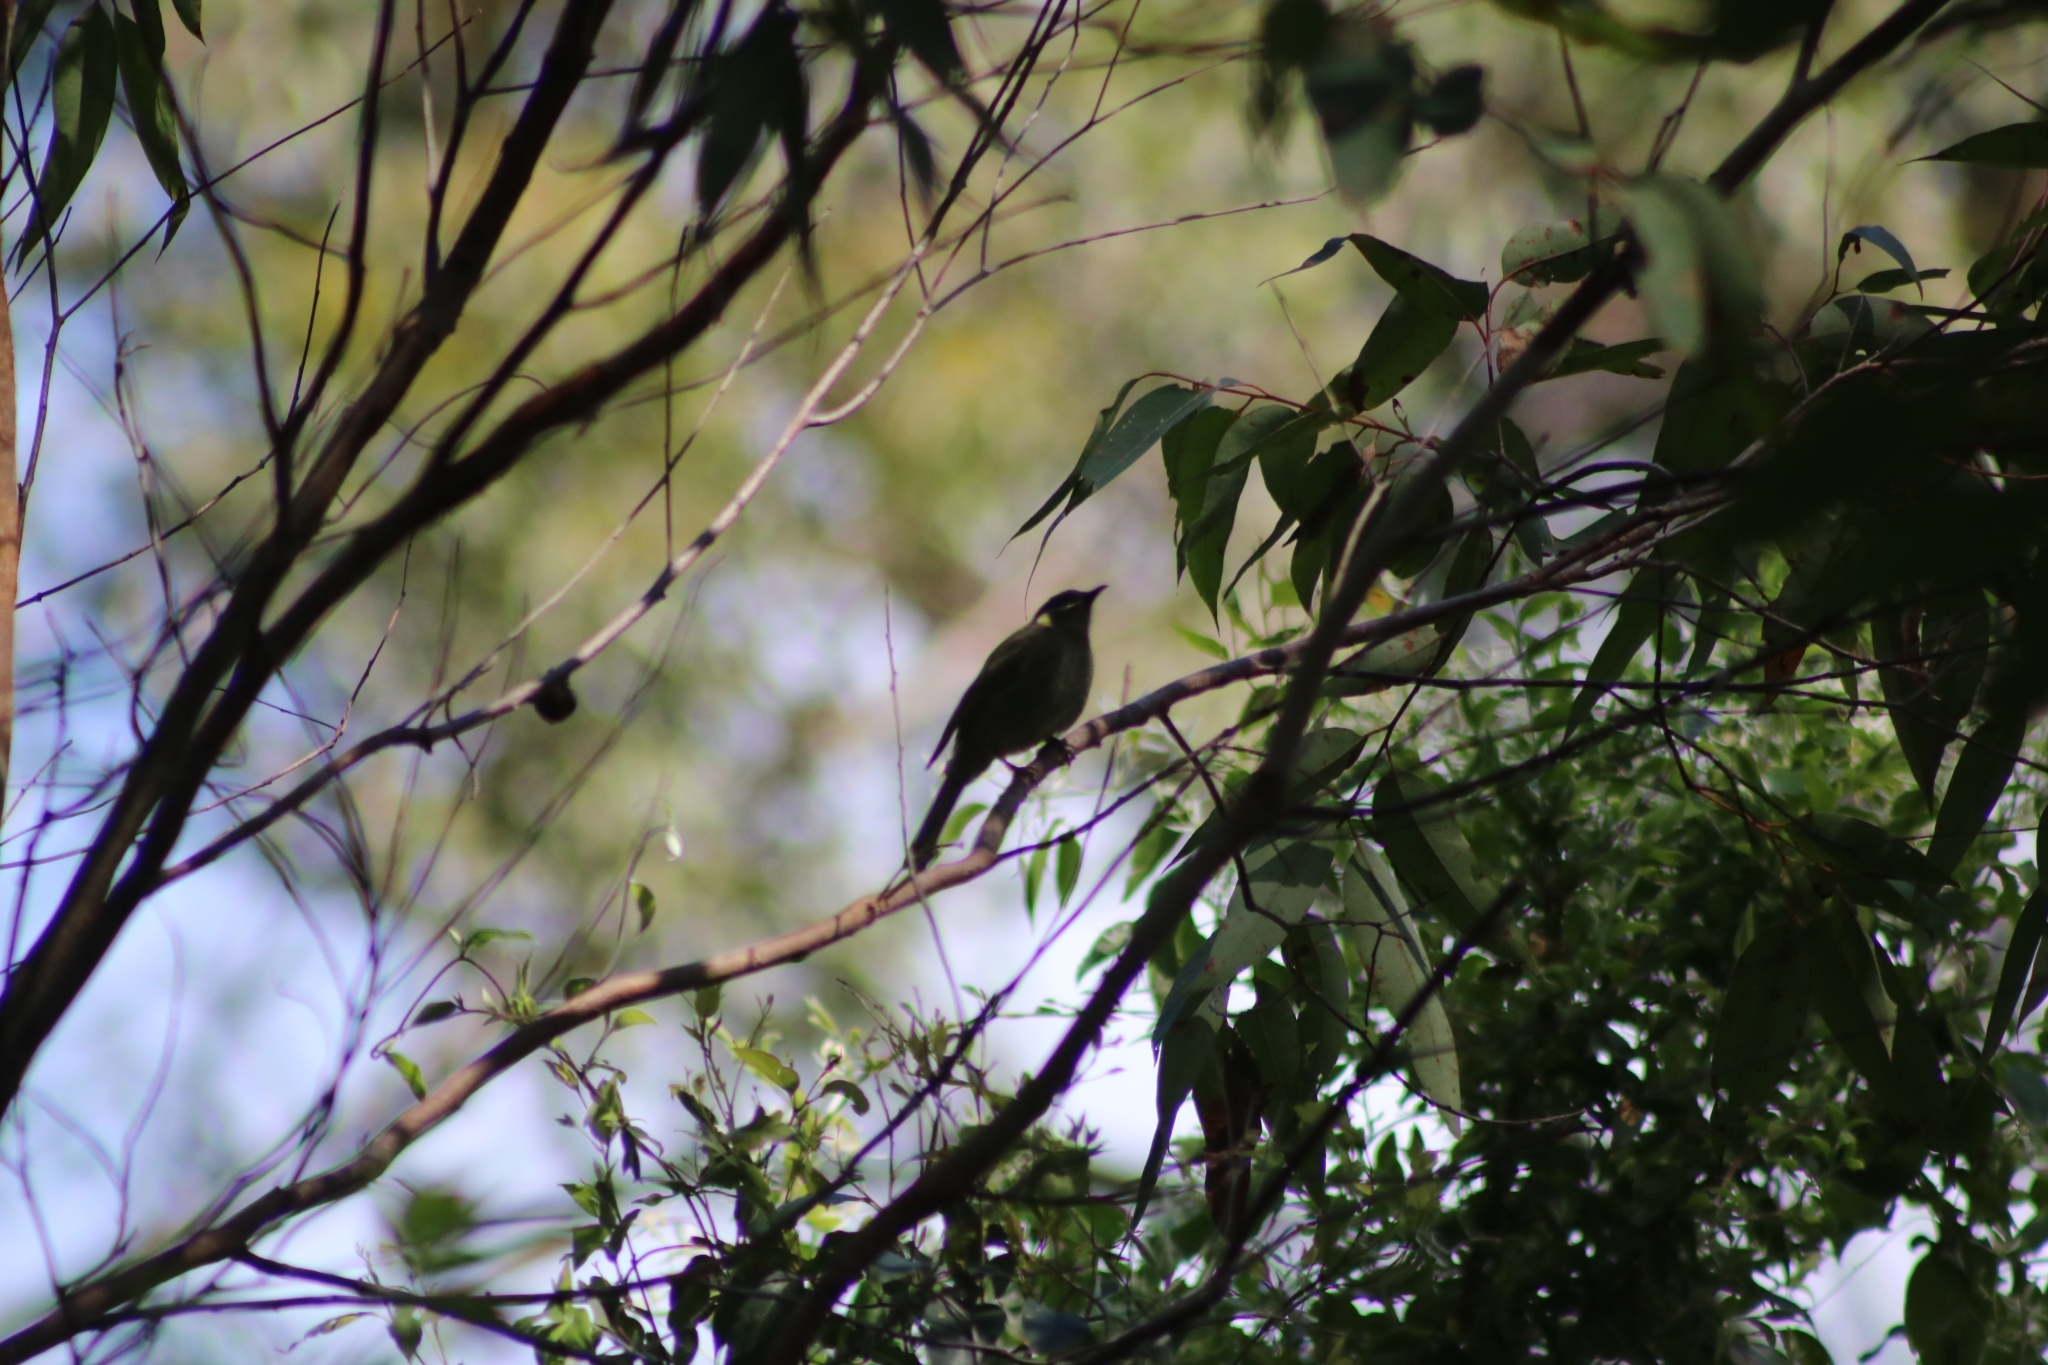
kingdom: Animalia
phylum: Chordata
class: Aves
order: Passeriformes
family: Meliphagidae
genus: Meliphaga
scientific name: Meliphaga lewinii
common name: Lewin's honeyeater
